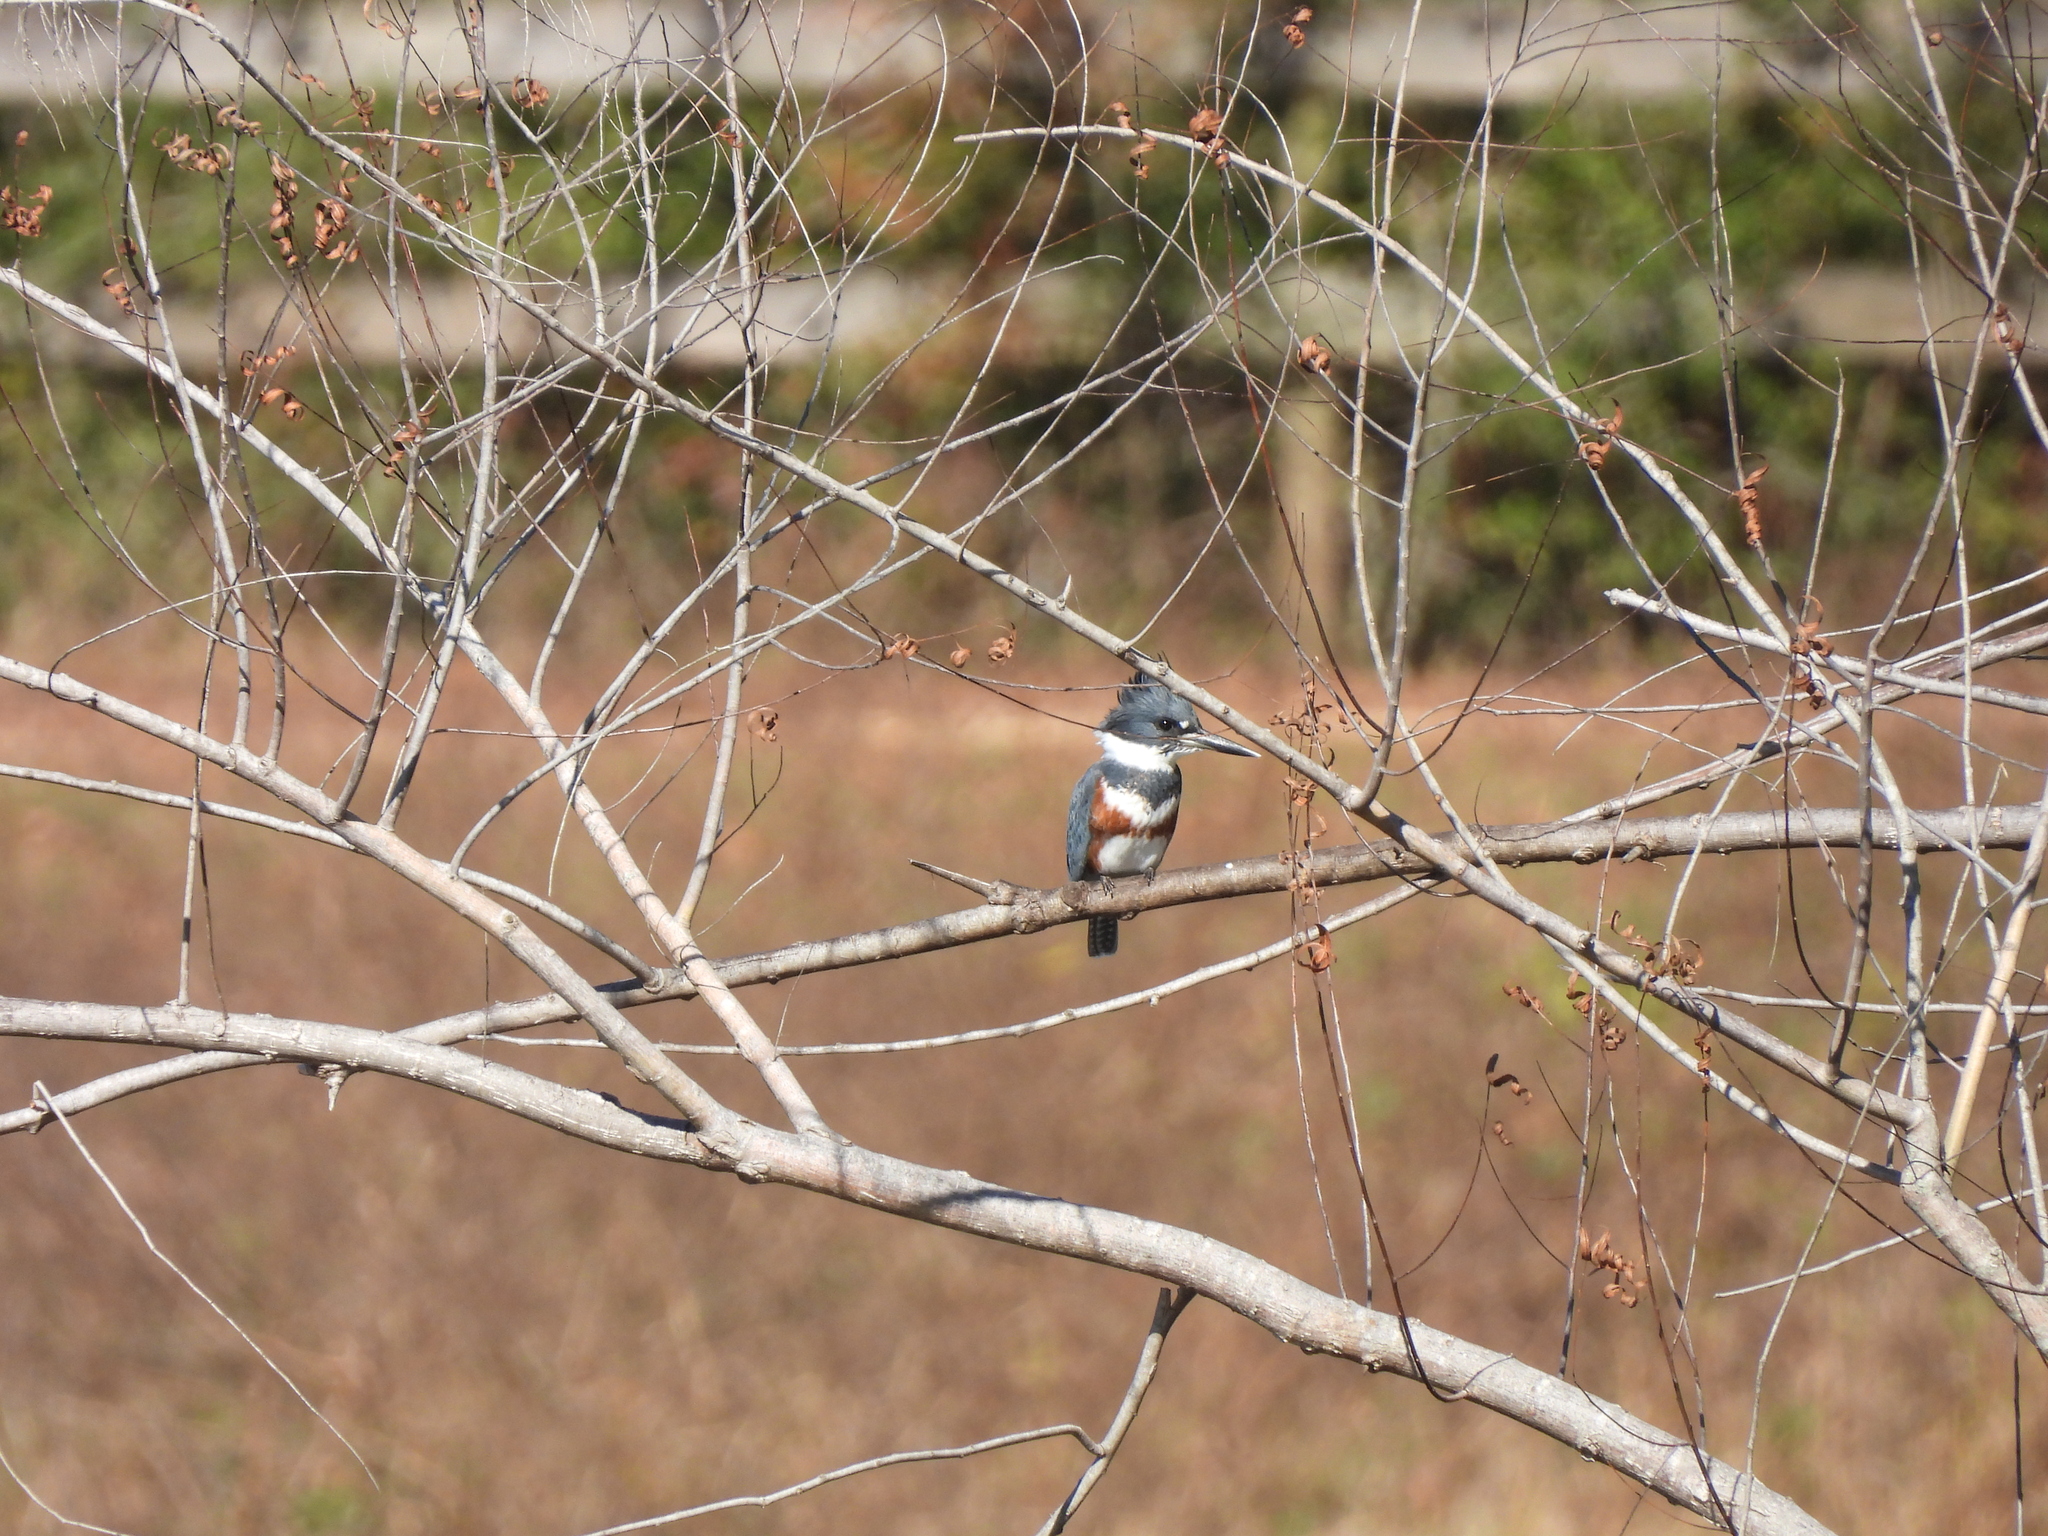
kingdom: Animalia
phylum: Chordata
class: Aves
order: Coraciiformes
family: Alcedinidae
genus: Megaceryle
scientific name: Megaceryle alcyon
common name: Belted kingfisher
